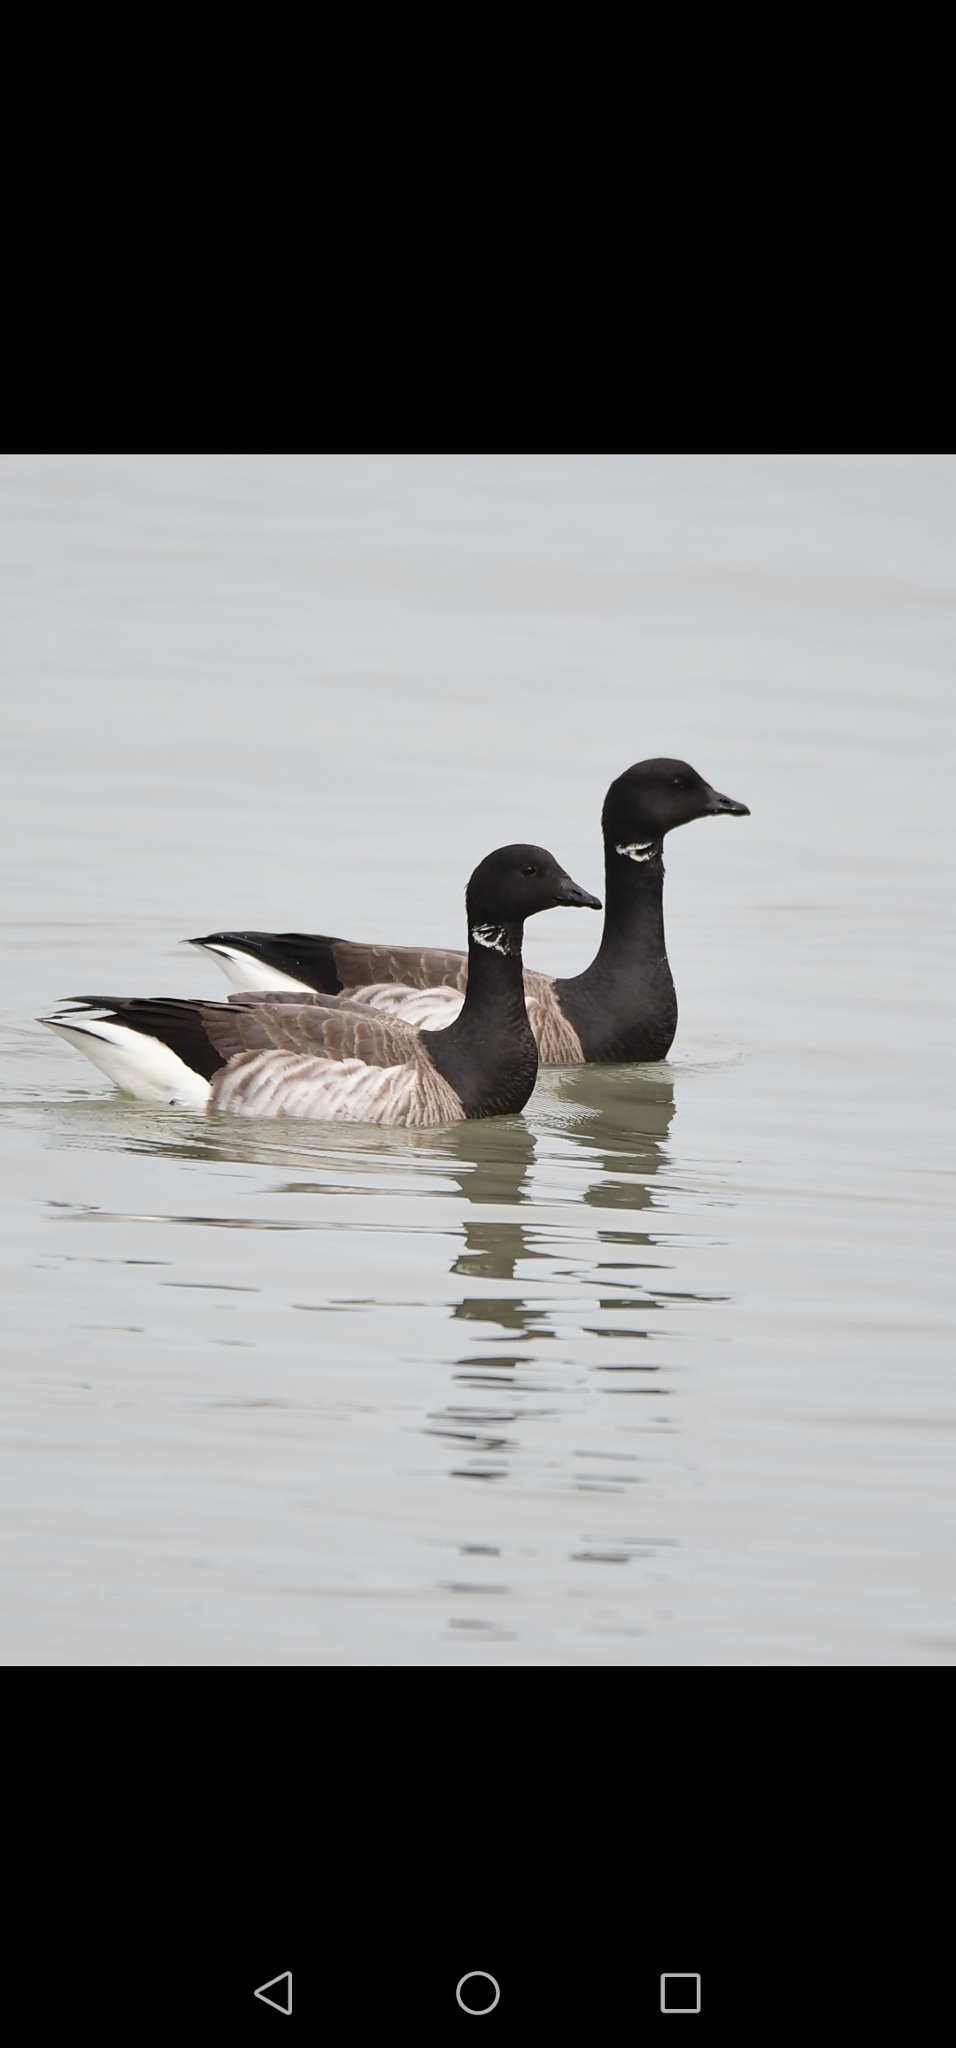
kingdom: Animalia
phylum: Chordata
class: Aves
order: Anseriformes
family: Anatidae
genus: Branta
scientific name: Branta bernicla
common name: Brant goose
